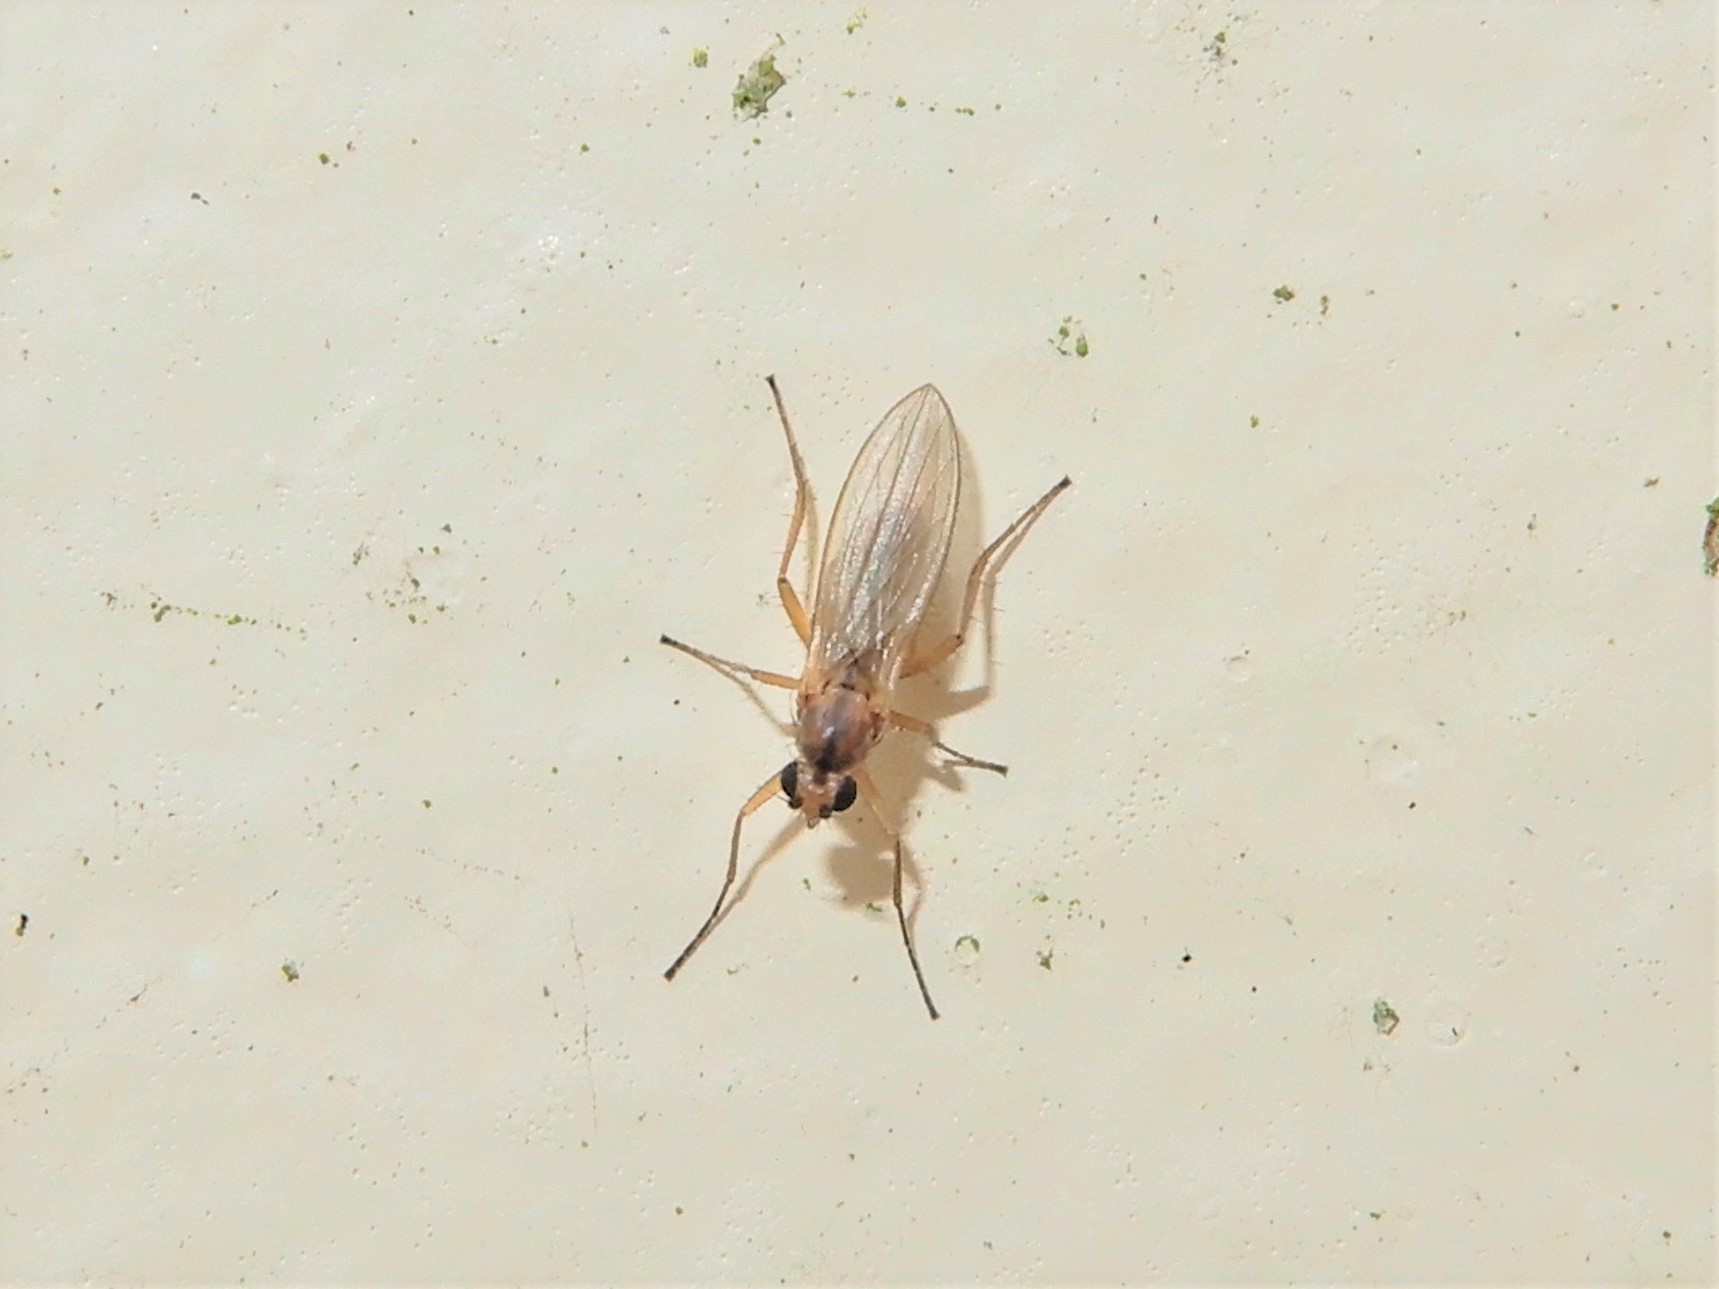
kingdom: Animalia
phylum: Arthropoda
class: Insecta
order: Diptera
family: Lonchopteridae
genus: Lonchoptera
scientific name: Lonchoptera bifurcata
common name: Spear-winged fly
